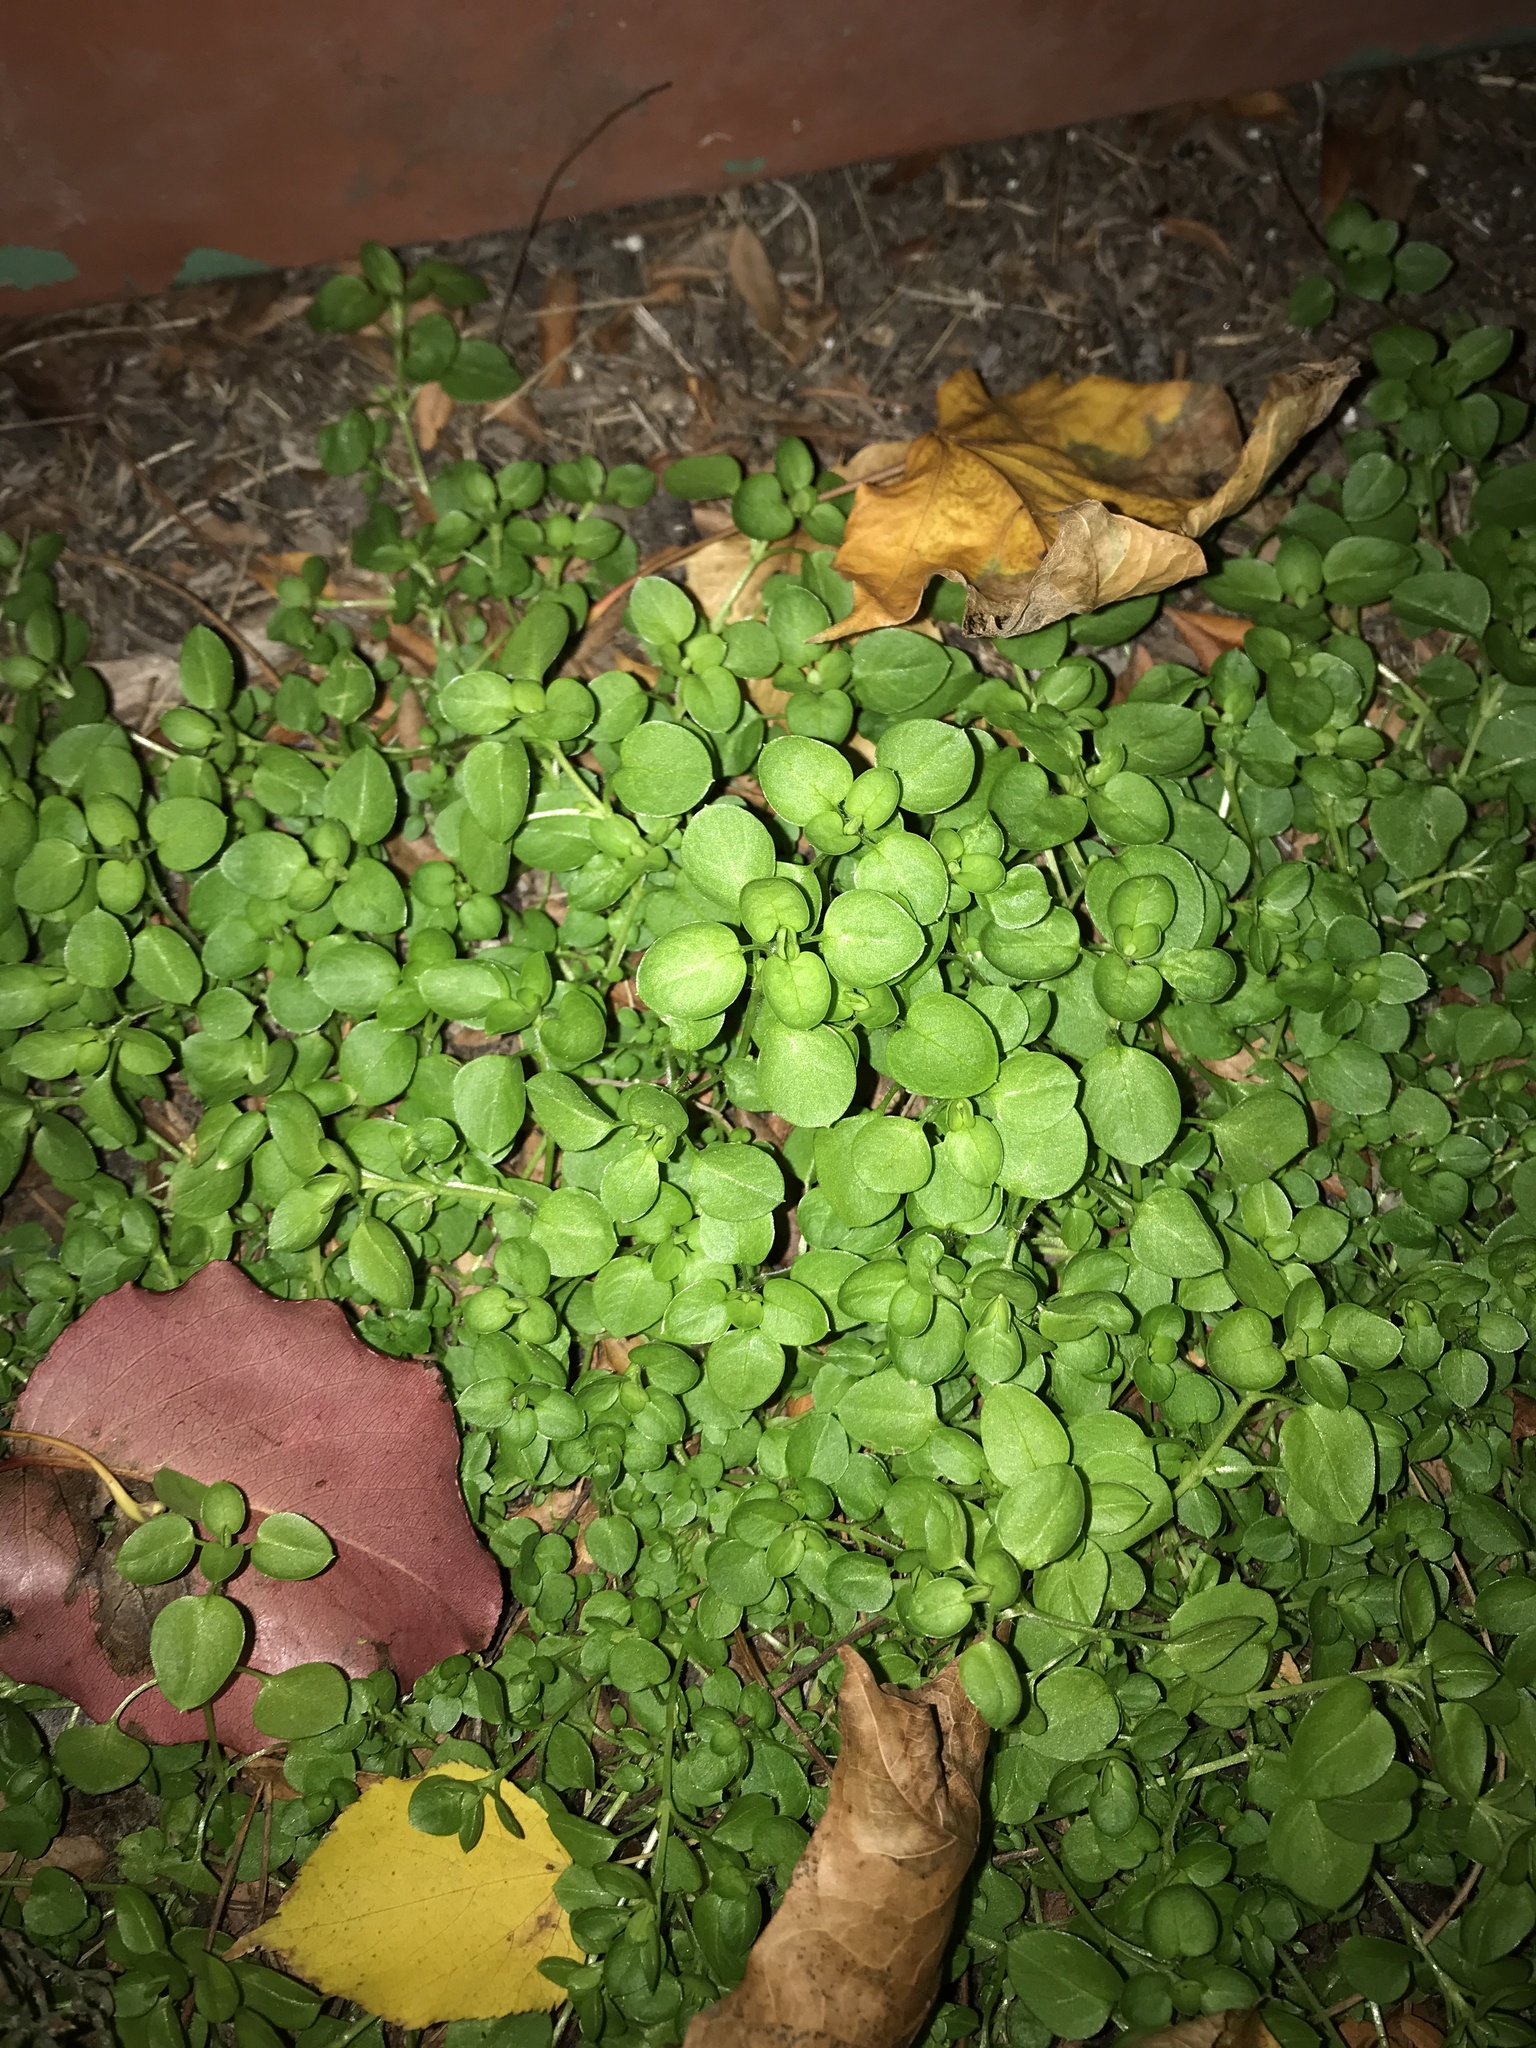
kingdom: Plantae
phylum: Tracheophyta
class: Magnoliopsida
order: Brassicales
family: Brassicaceae
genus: Cardamine
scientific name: Cardamine hirsuta
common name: Hairy bittercress
